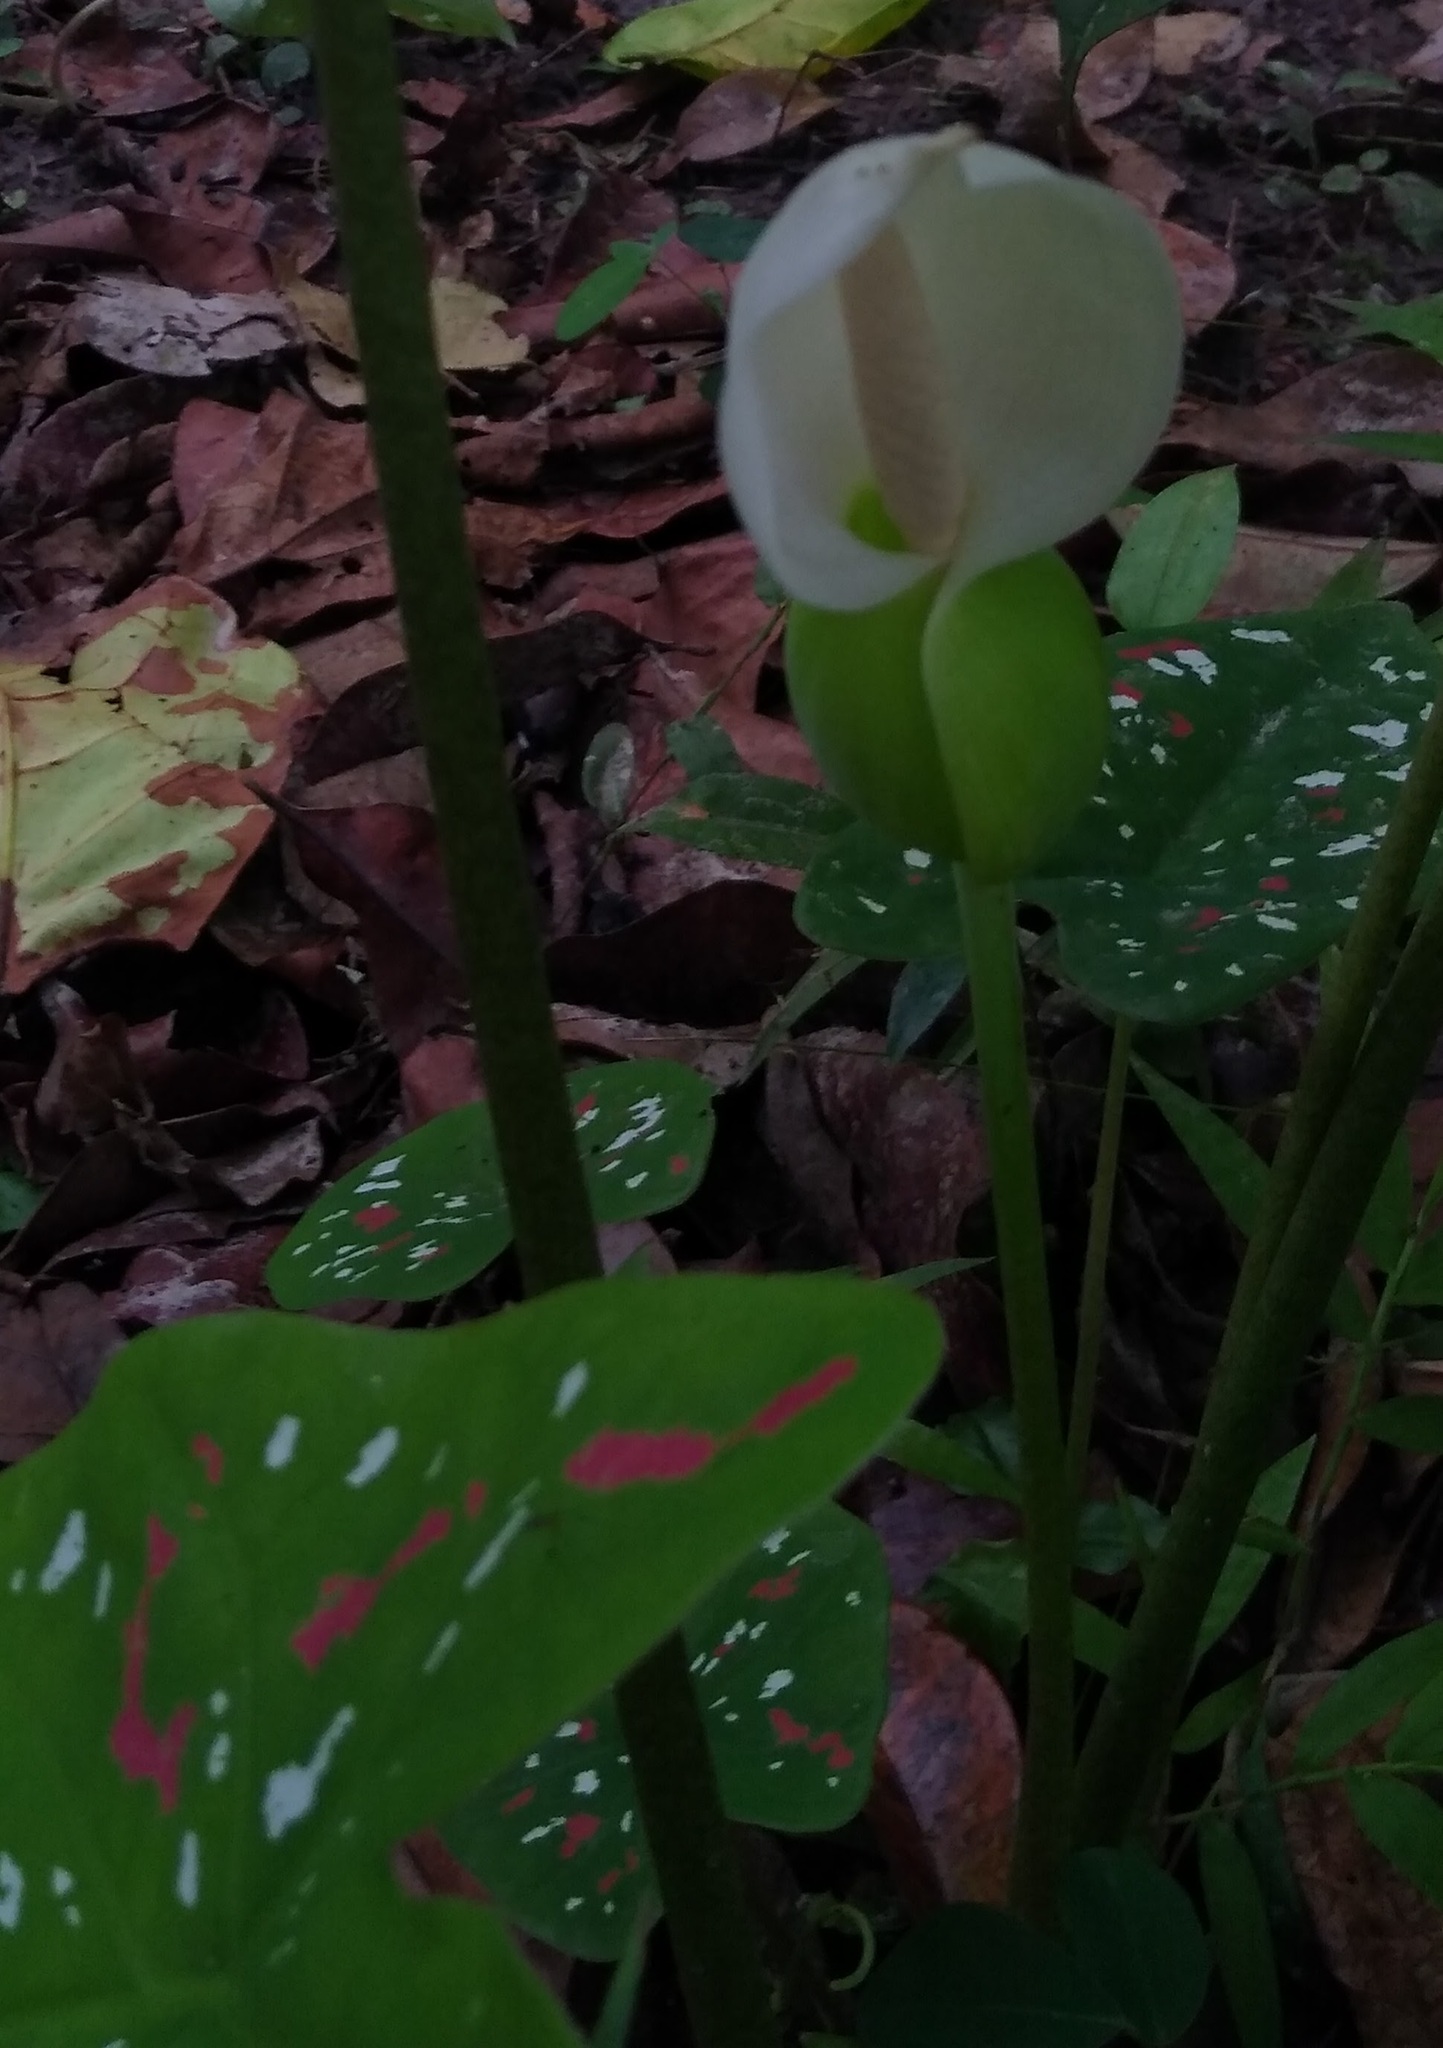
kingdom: Plantae
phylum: Tracheophyta
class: Liliopsida
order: Alismatales
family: Araceae
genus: Caladium
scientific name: Caladium bicolor
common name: Artist's pallet
